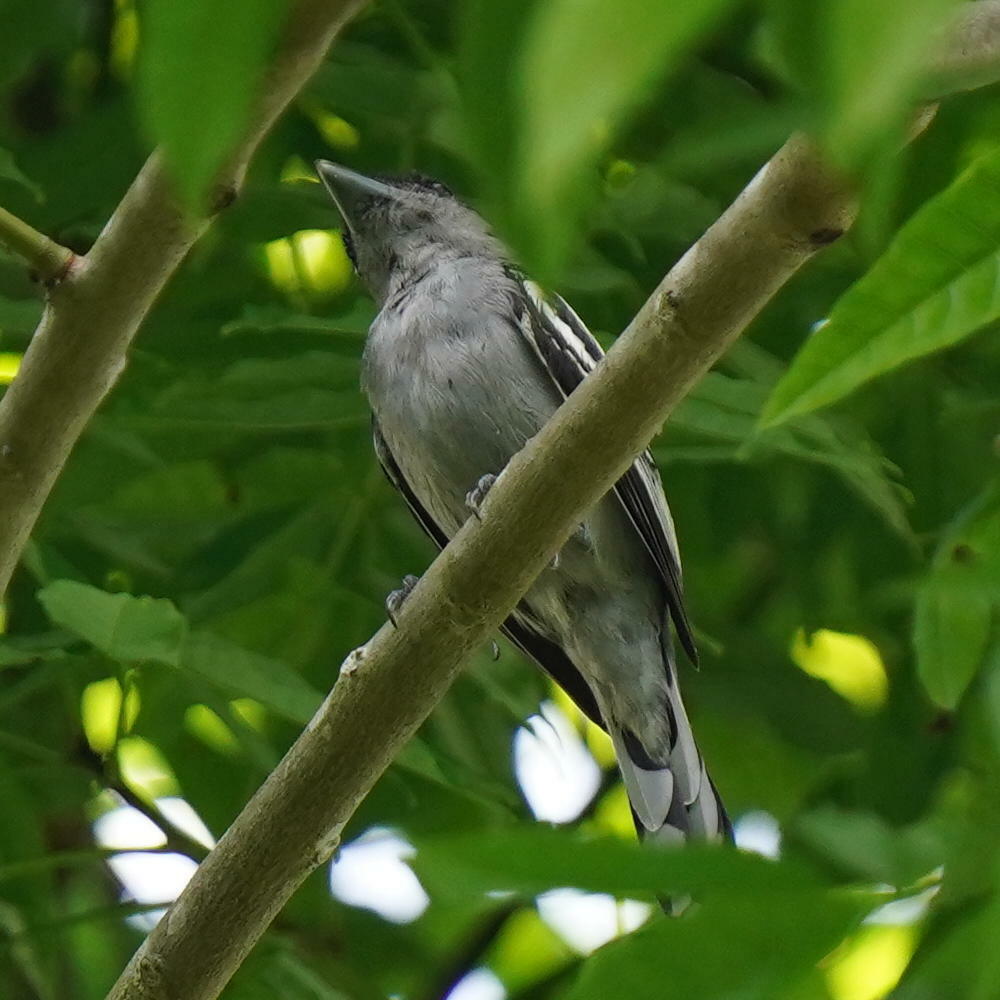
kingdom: Animalia
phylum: Chordata
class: Aves
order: Passeriformes
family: Cotingidae
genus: Pachyramphus
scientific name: Pachyramphus polychopterus
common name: White-winged becard
